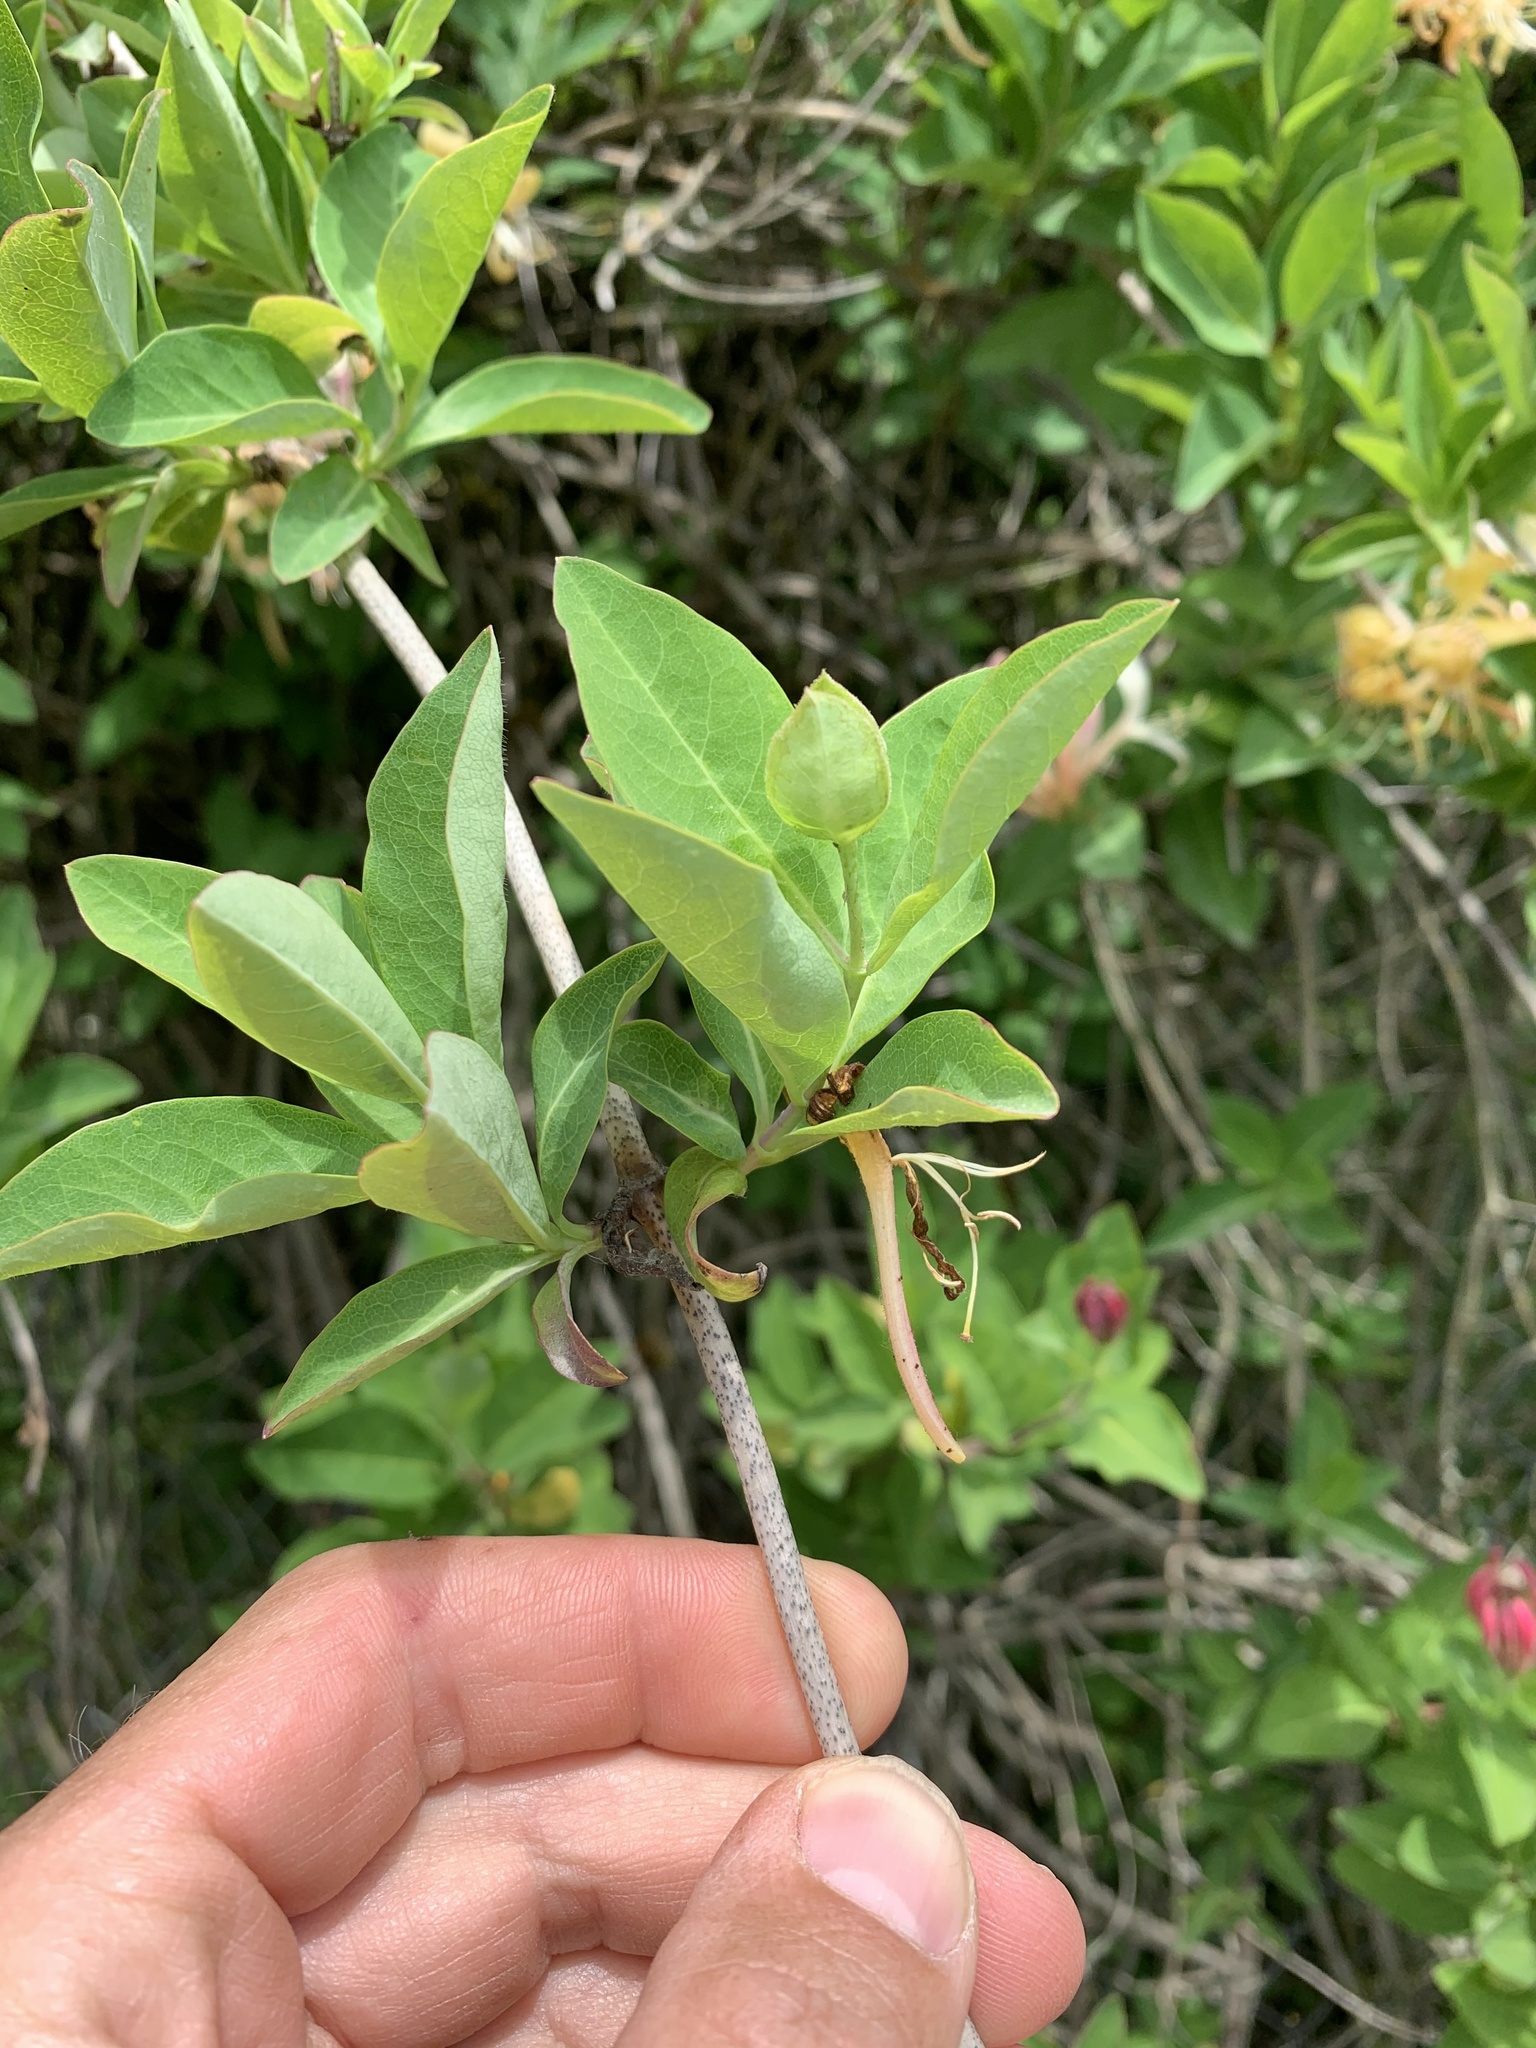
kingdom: Plantae
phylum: Tracheophyta
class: Magnoliopsida
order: Dipsacales
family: Caprifoliaceae
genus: Lonicera
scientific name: Lonicera periclymenum
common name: European honeysuckle
